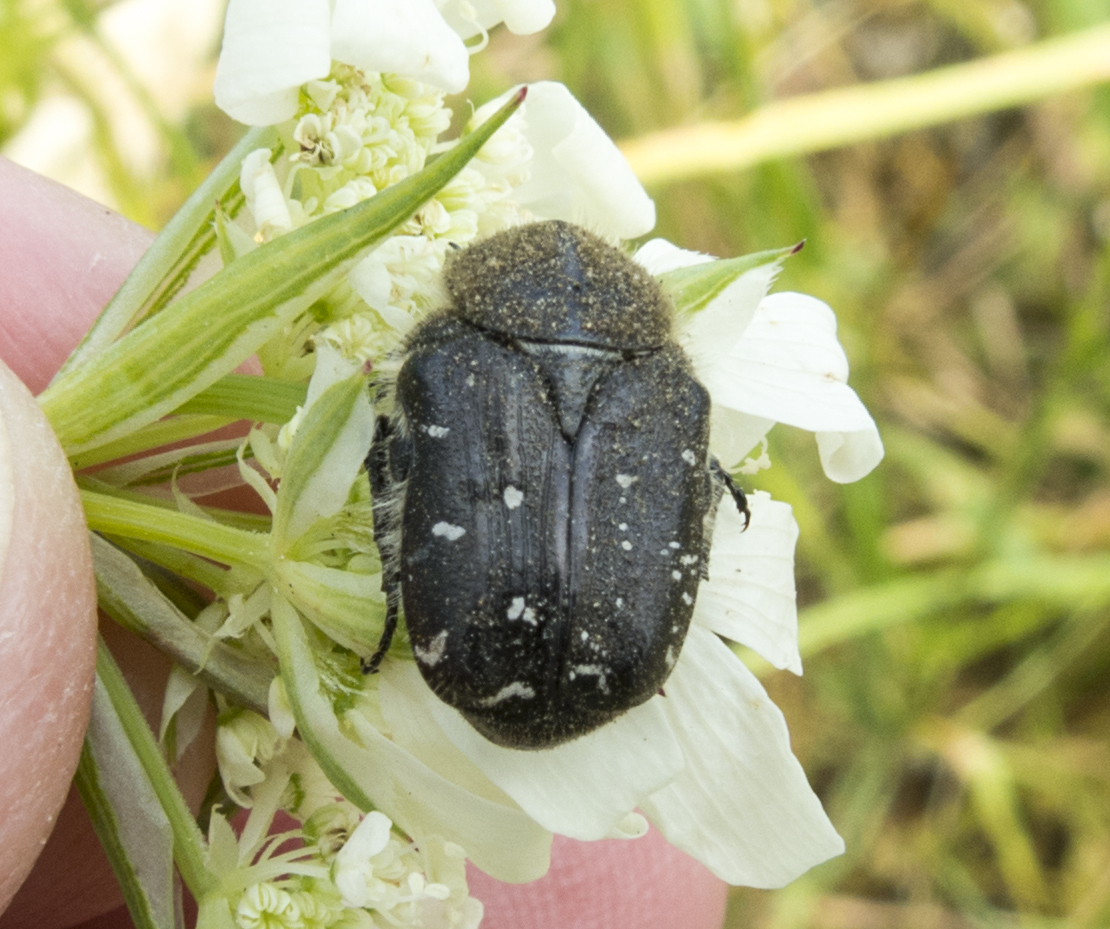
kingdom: Animalia
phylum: Arthropoda
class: Insecta
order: Coleoptera
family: Scarabaeidae
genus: Tropinota
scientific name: Tropinota hirta
